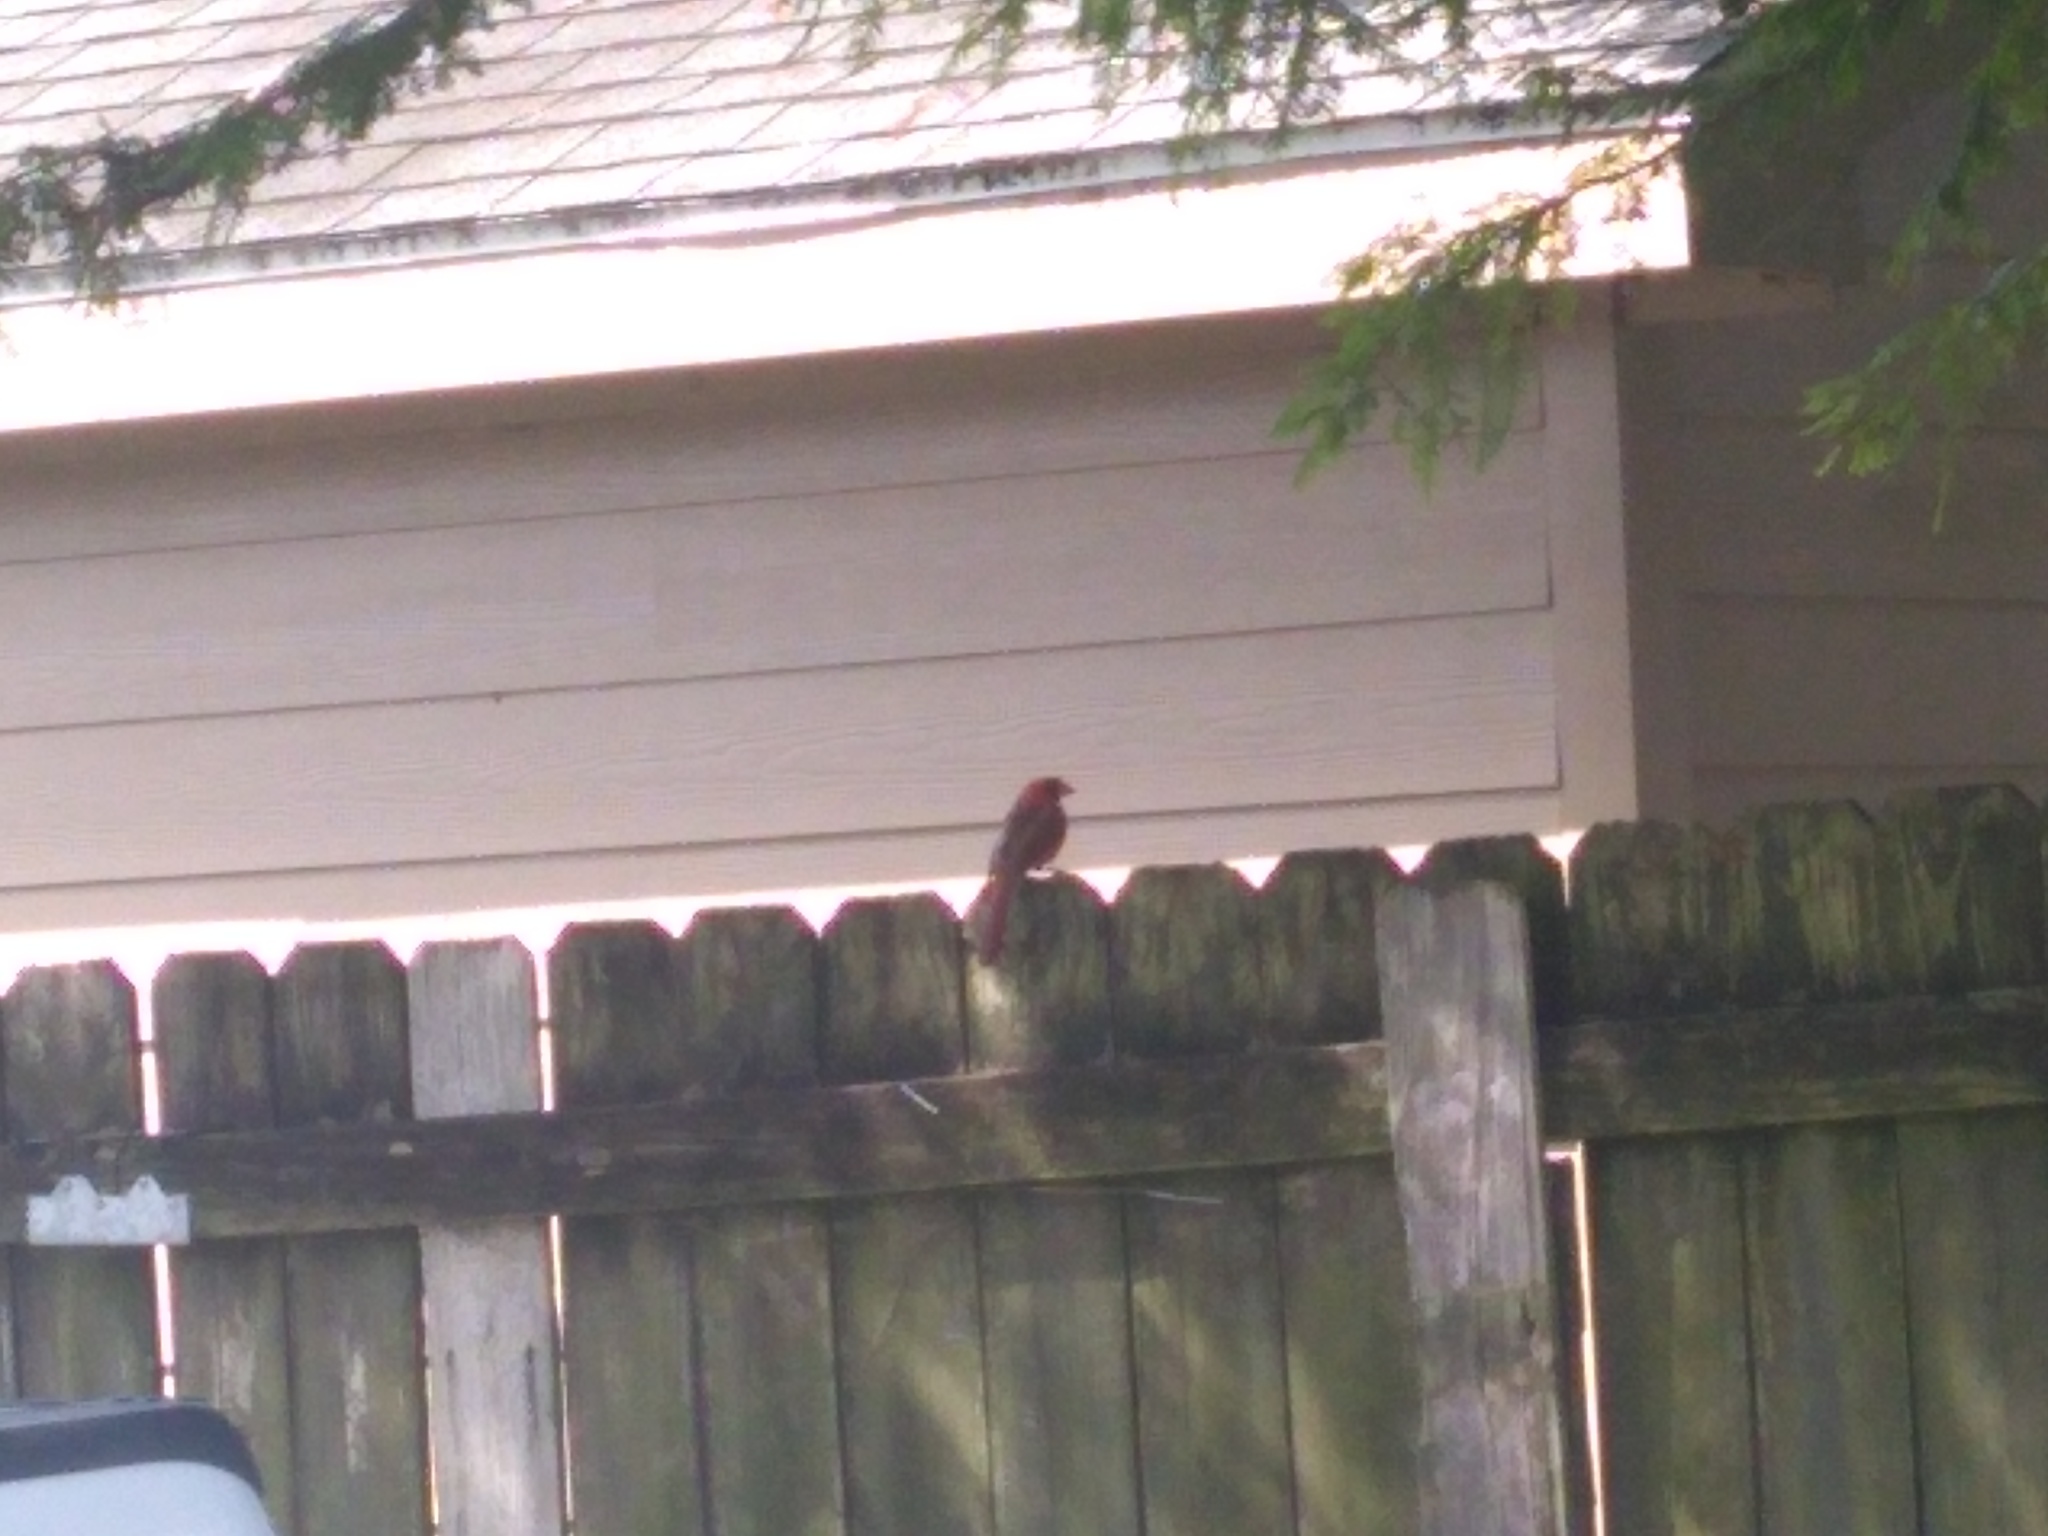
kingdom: Animalia
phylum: Chordata
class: Aves
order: Passeriformes
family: Cardinalidae
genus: Cardinalis
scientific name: Cardinalis cardinalis
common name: Northern cardinal
